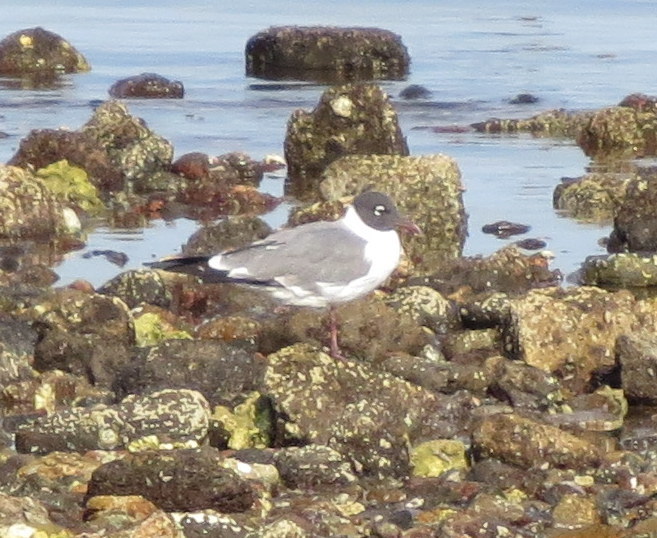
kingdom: Animalia
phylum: Chordata
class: Aves
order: Charadriiformes
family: Laridae
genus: Leucophaeus
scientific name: Leucophaeus atricilla
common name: Laughing gull
